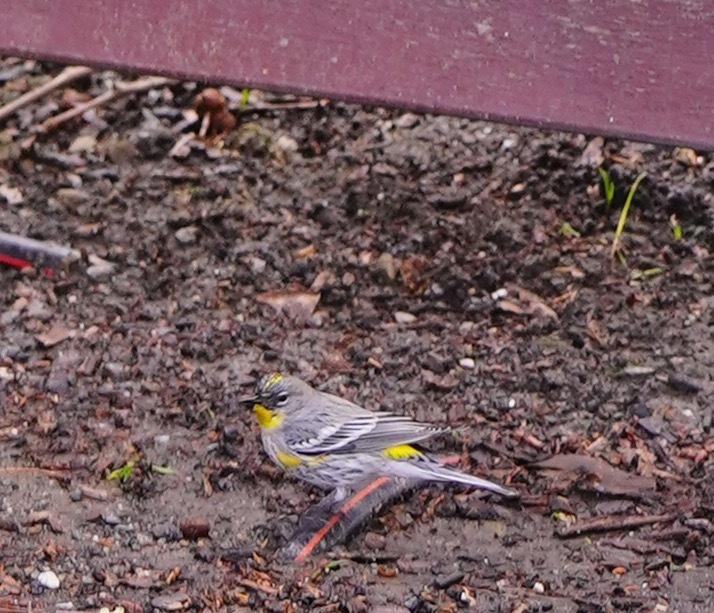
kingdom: Animalia
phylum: Chordata
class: Aves
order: Passeriformes
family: Parulidae
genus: Setophaga
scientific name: Setophaga auduboni
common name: Audubon's warbler
